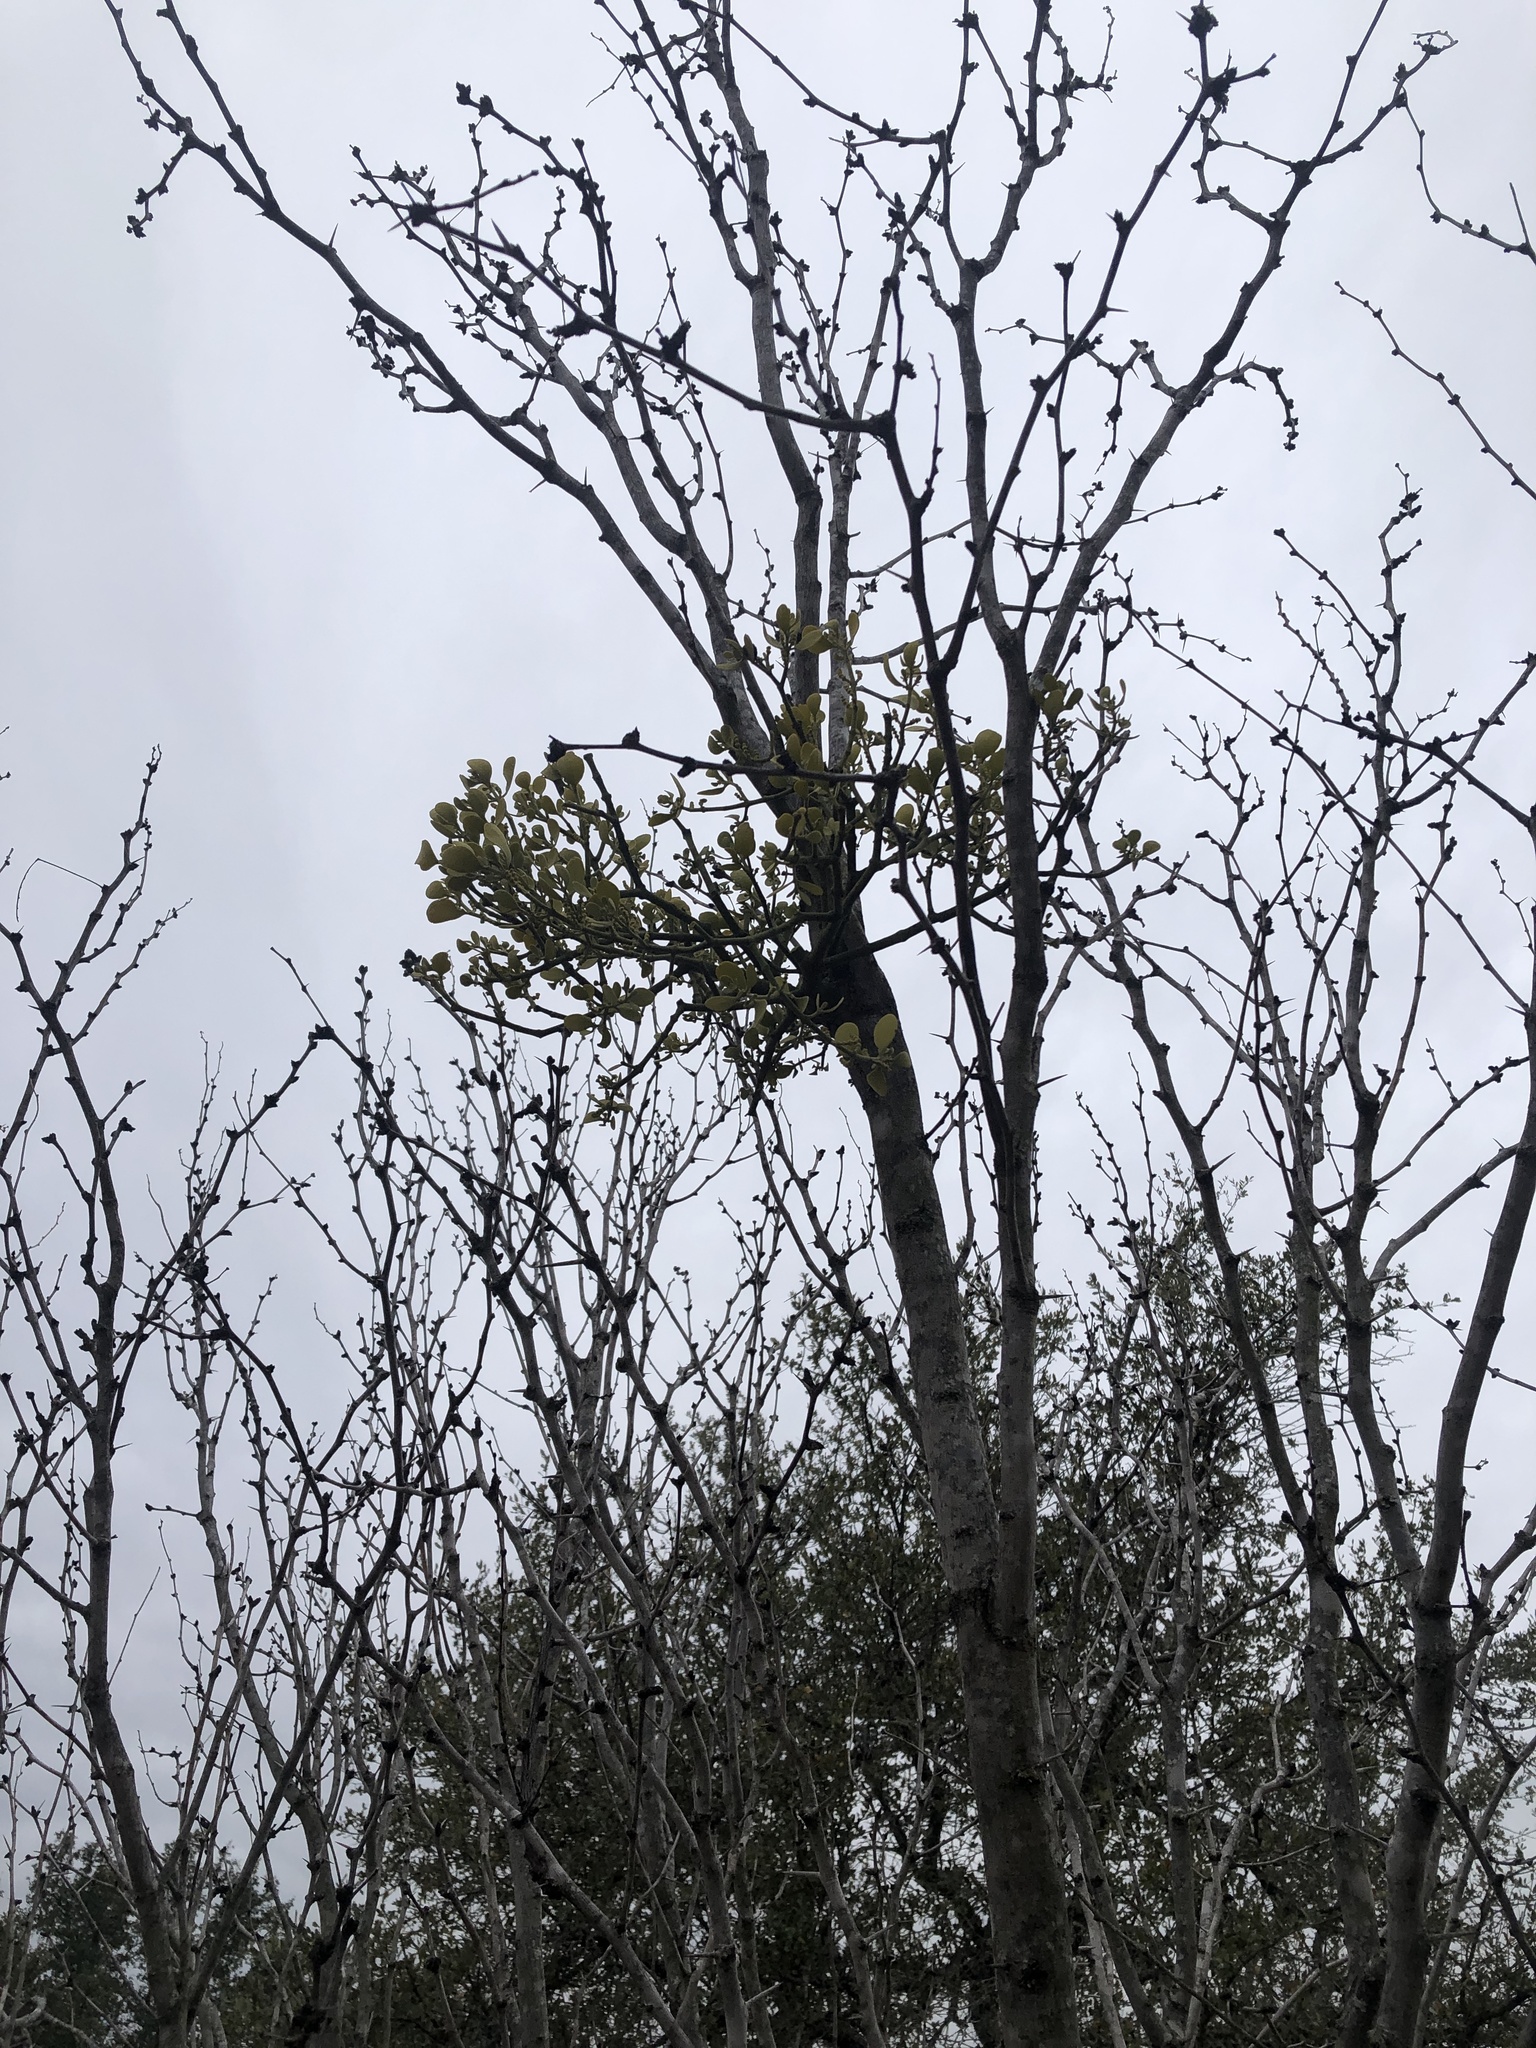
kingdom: Plantae
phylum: Tracheophyta
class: Magnoliopsida
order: Santalales
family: Viscaceae
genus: Phoradendron
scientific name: Phoradendron leucarpum
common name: Pacific mistletoe
